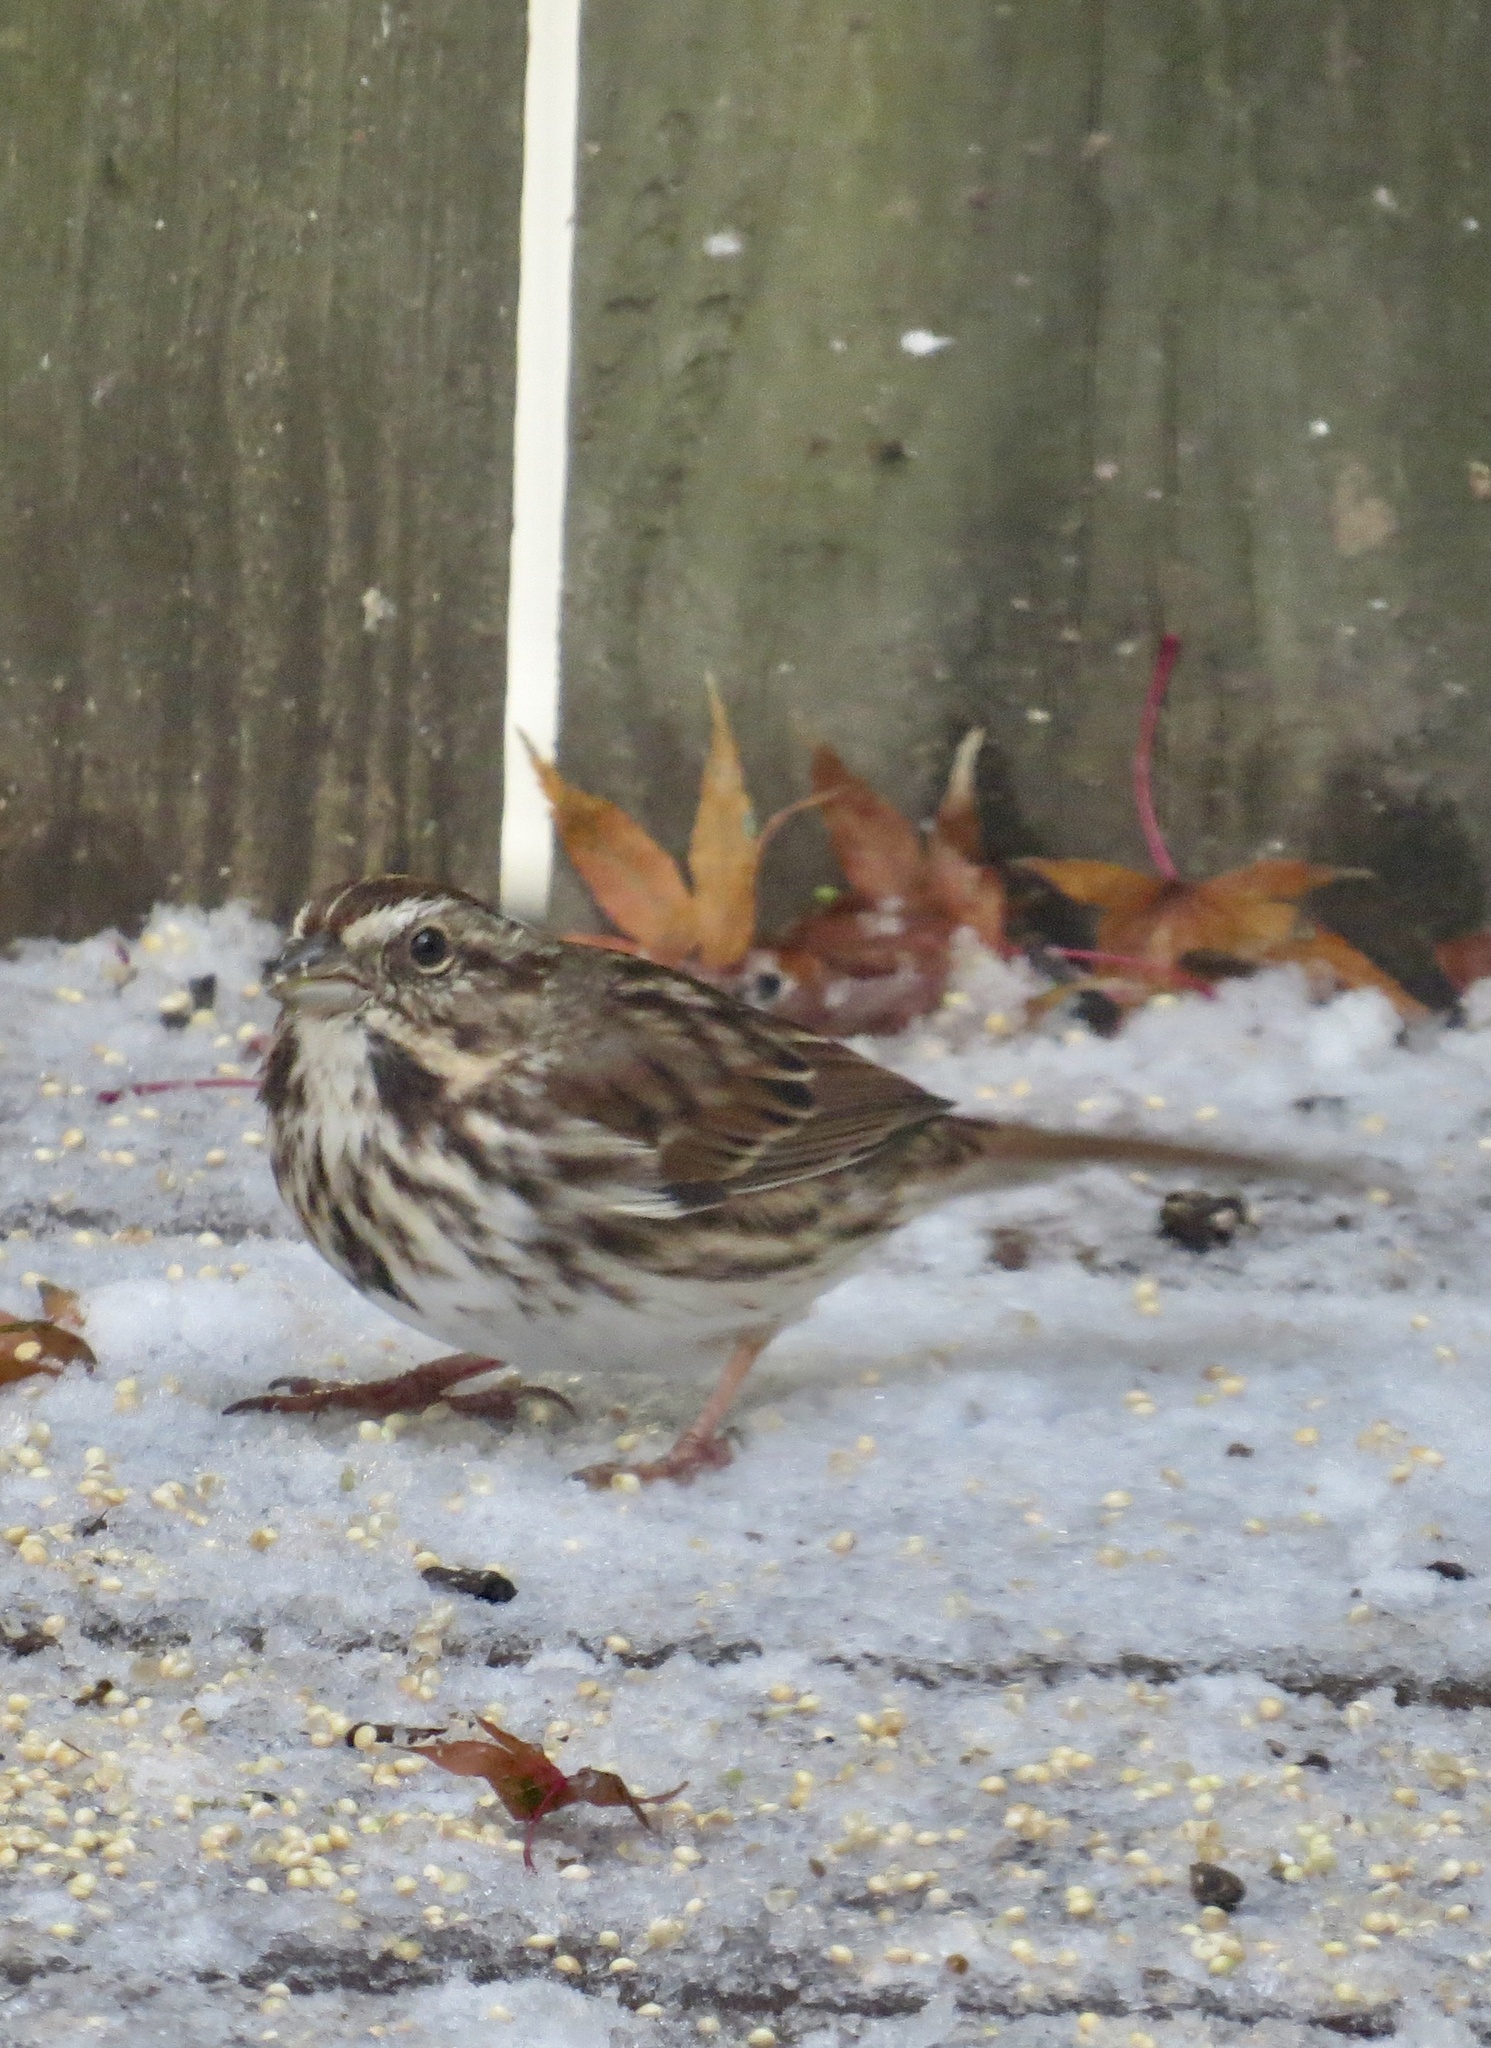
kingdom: Animalia
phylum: Chordata
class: Aves
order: Passeriformes
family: Passerellidae
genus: Melospiza
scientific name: Melospiza melodia
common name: Song sparrow
